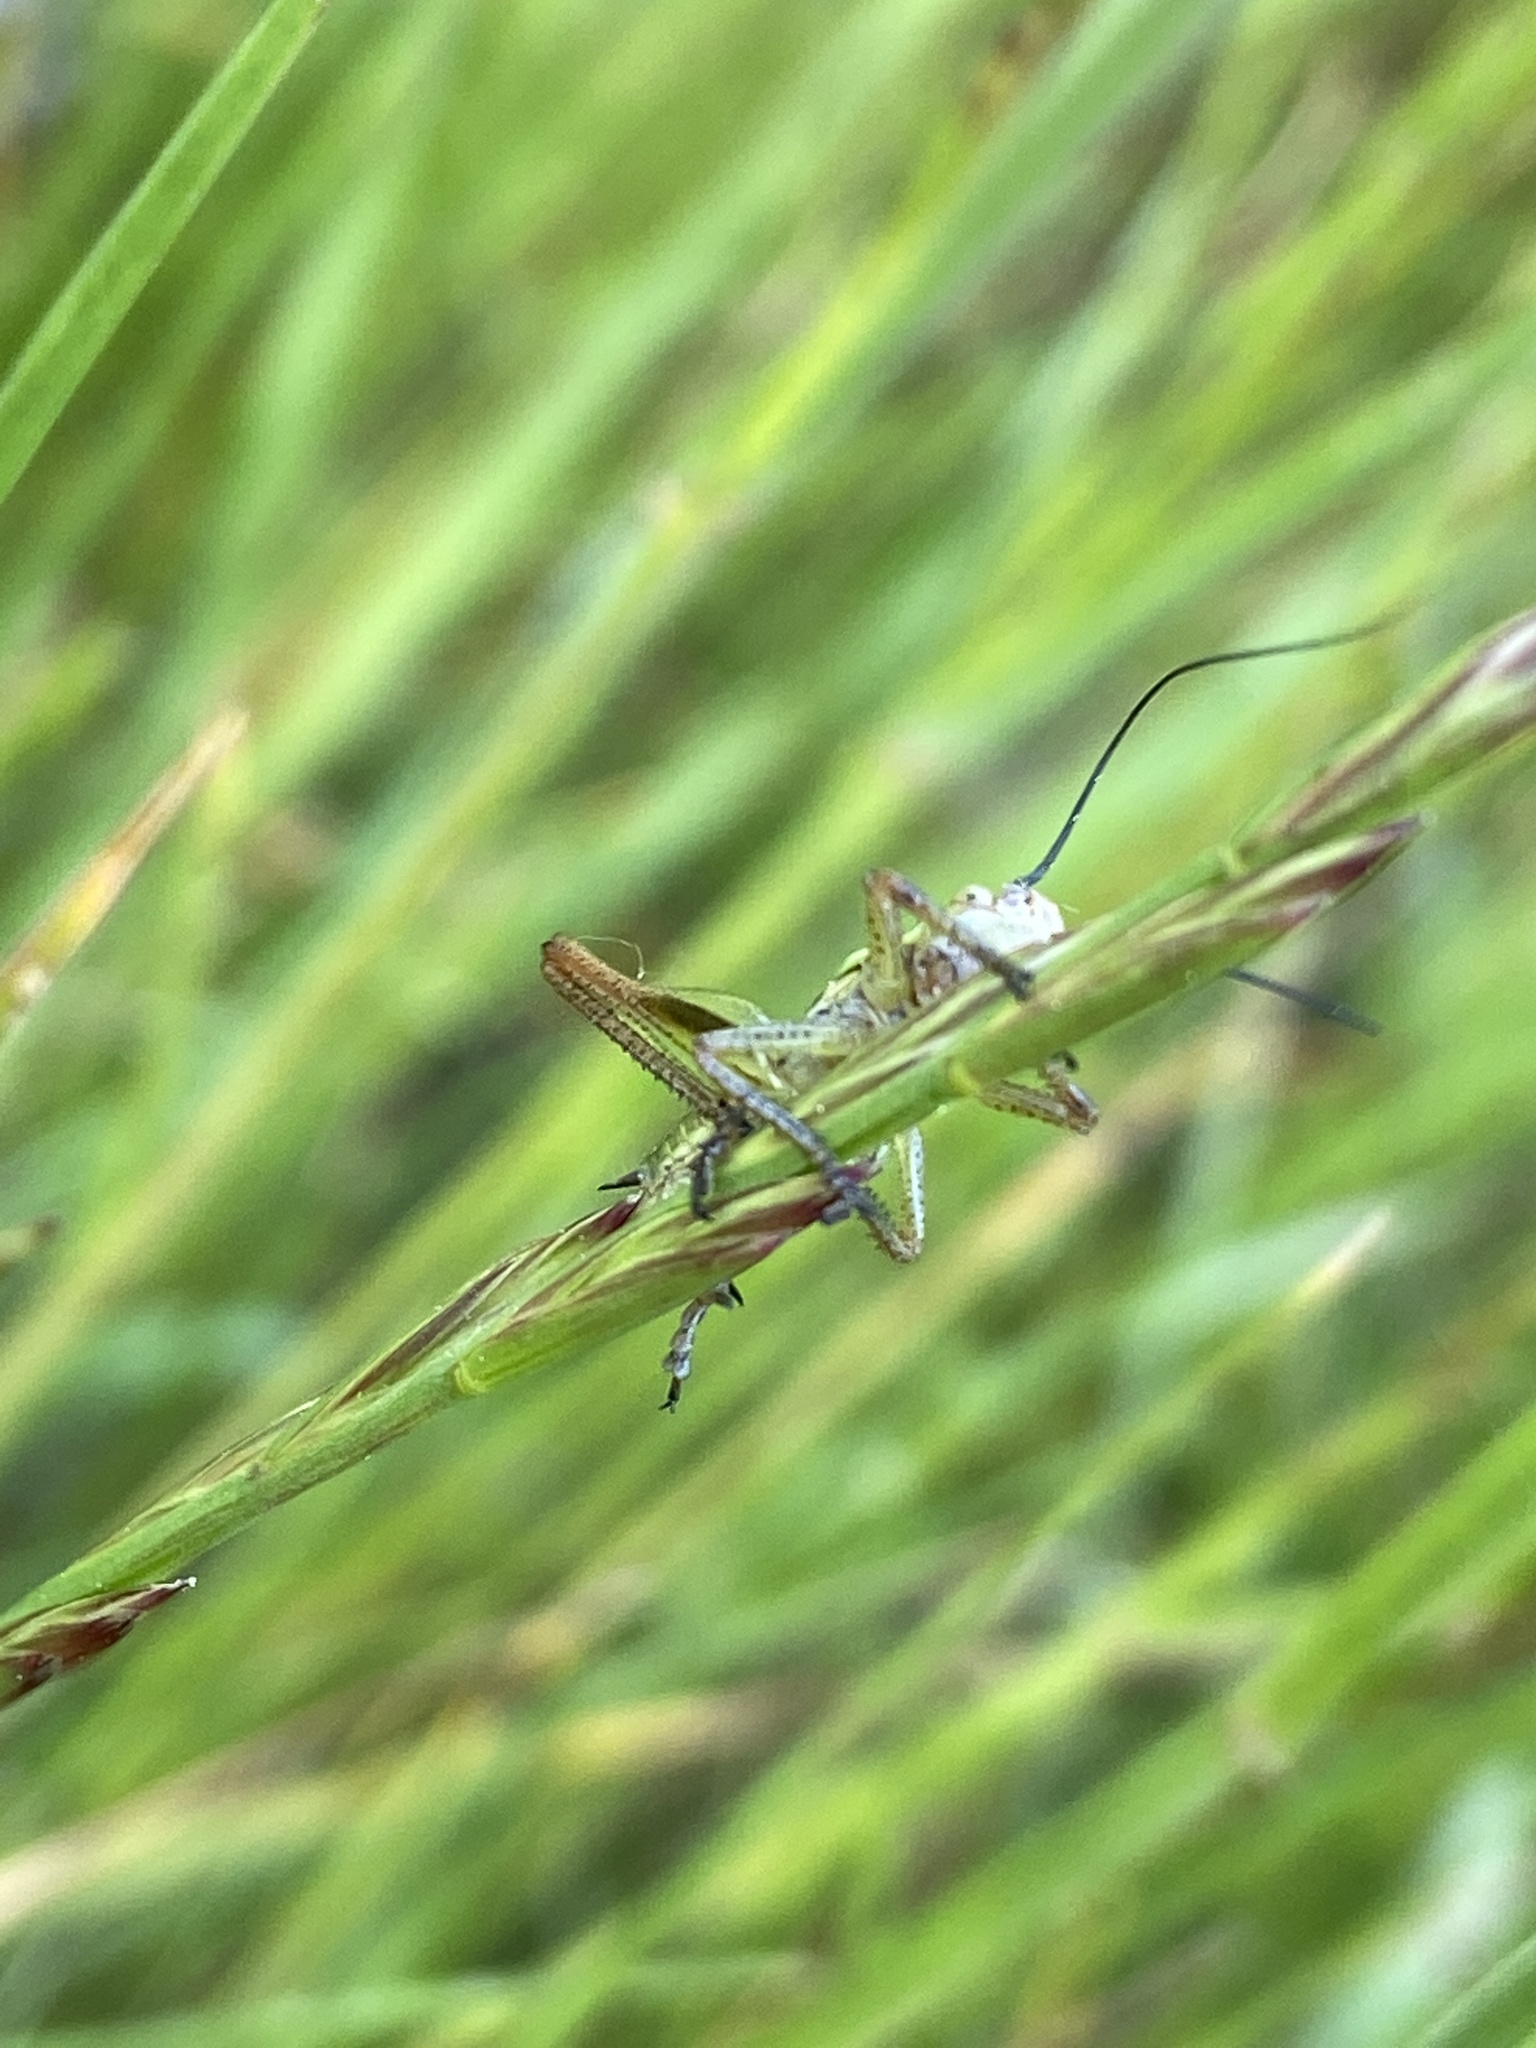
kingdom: Animalia
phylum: Arthropoda
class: Insecta
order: Orthoptera
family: Tettigoniidae
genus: Platycleis
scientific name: Platycleis albopunctata
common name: Grey bush-cricket
